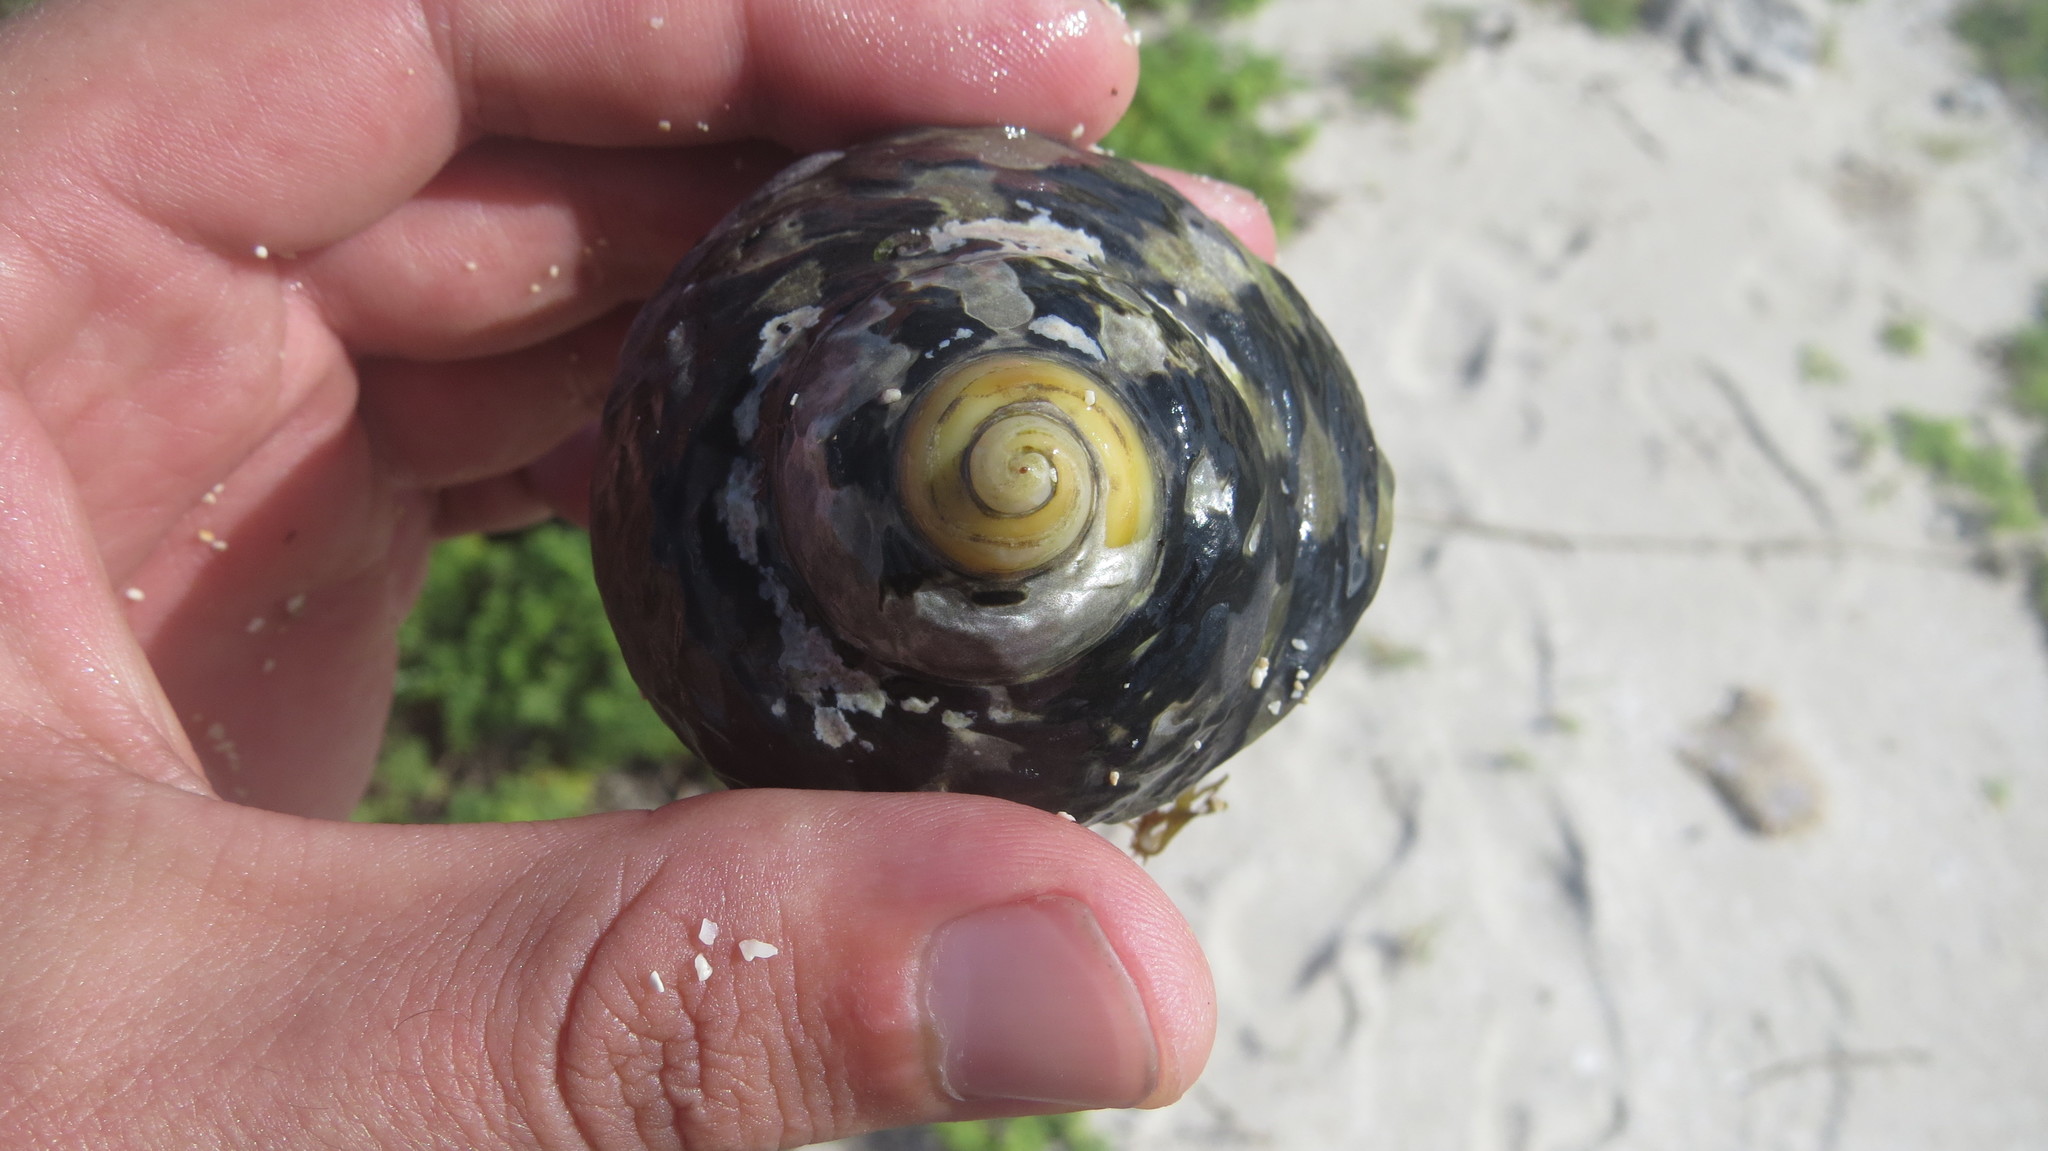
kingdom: Animalia
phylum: Mollusca
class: Gastropoda
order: Trochida
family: Tegulidae
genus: Cittarium
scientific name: Cittarium pica
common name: West indian topshell
